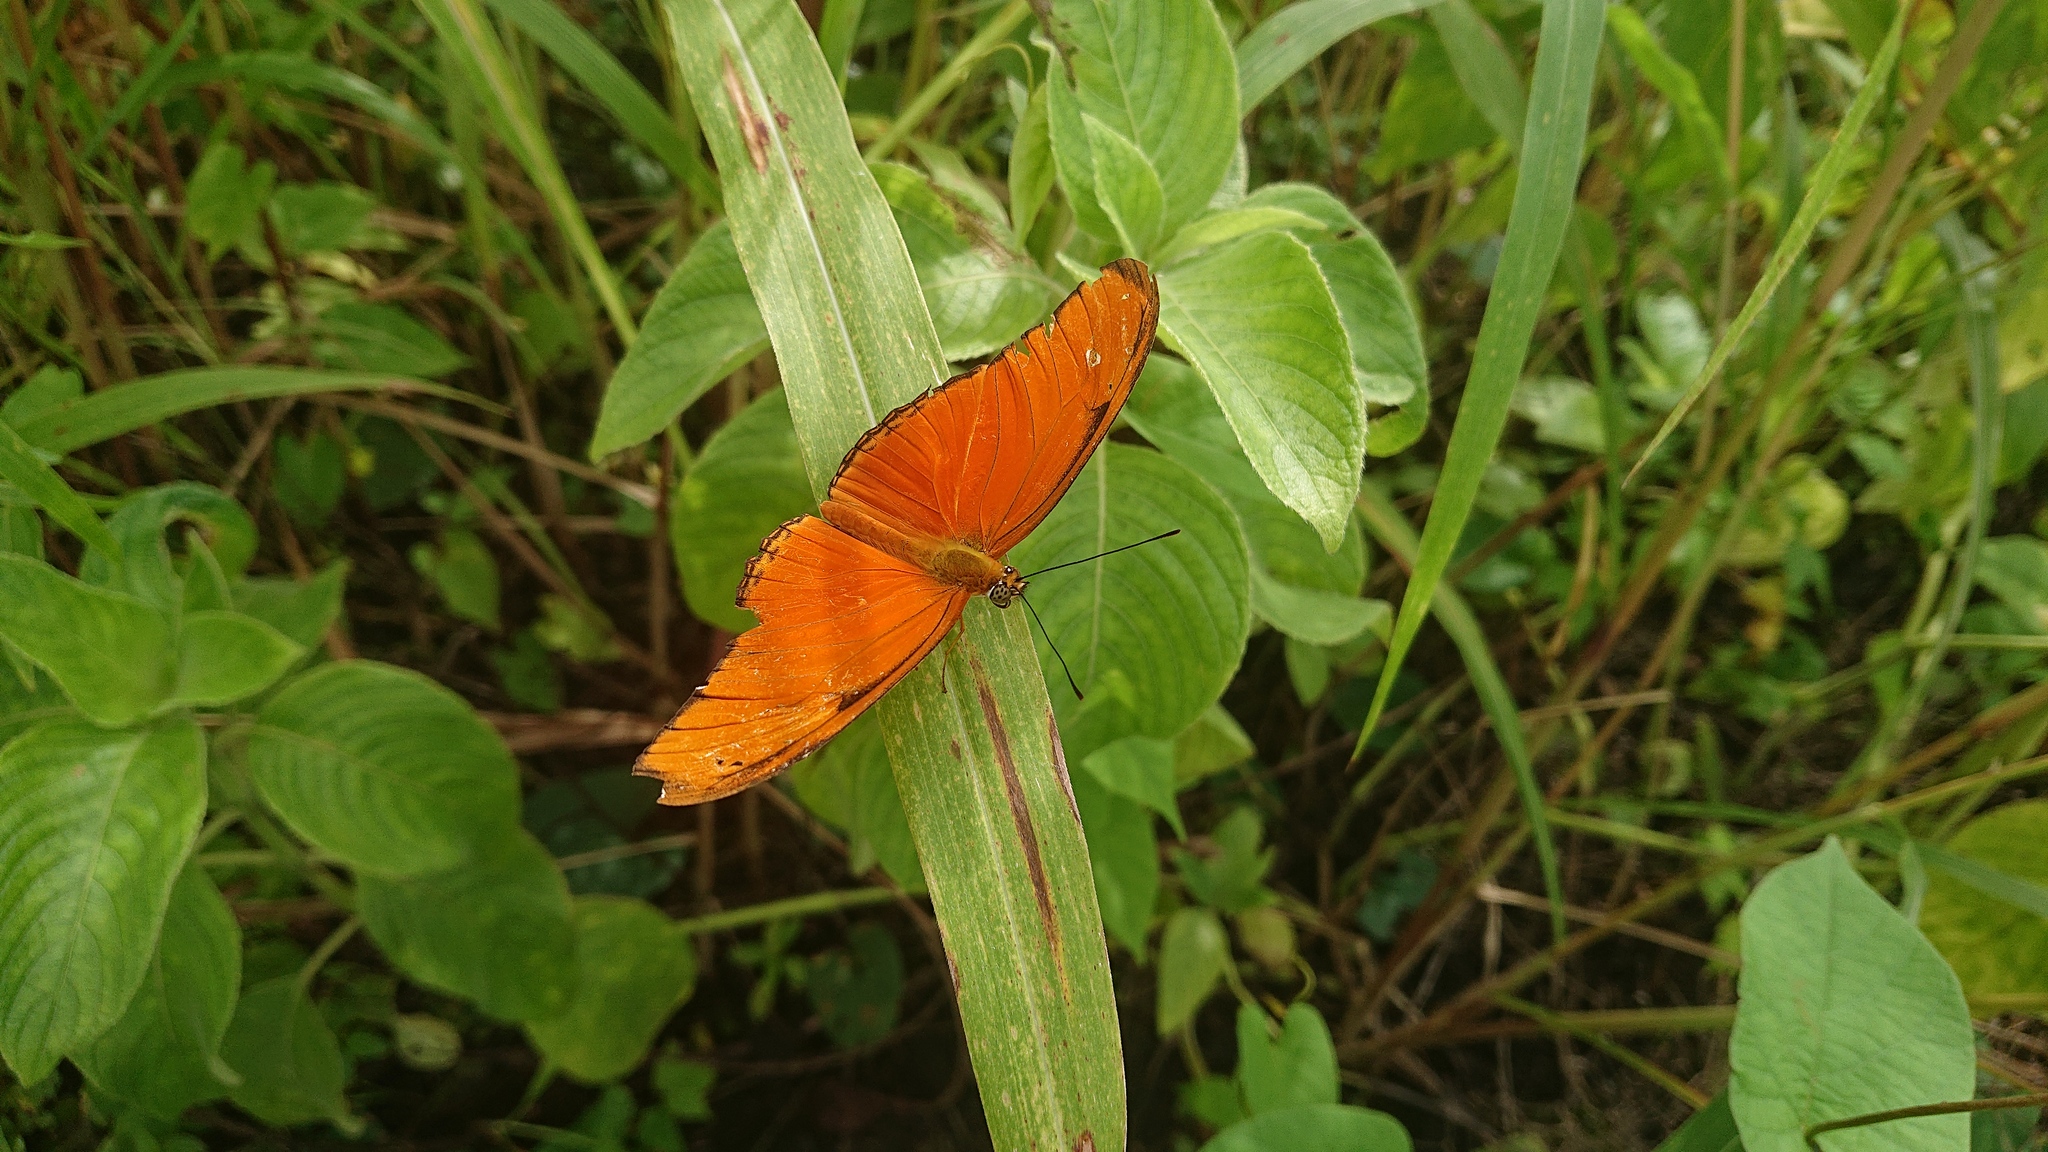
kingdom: Animalia
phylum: Arthropoda
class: Insecta
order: Lepidoptera
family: Nymphalidae
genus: Dryas
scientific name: Dryas iulia
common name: Flambeau
